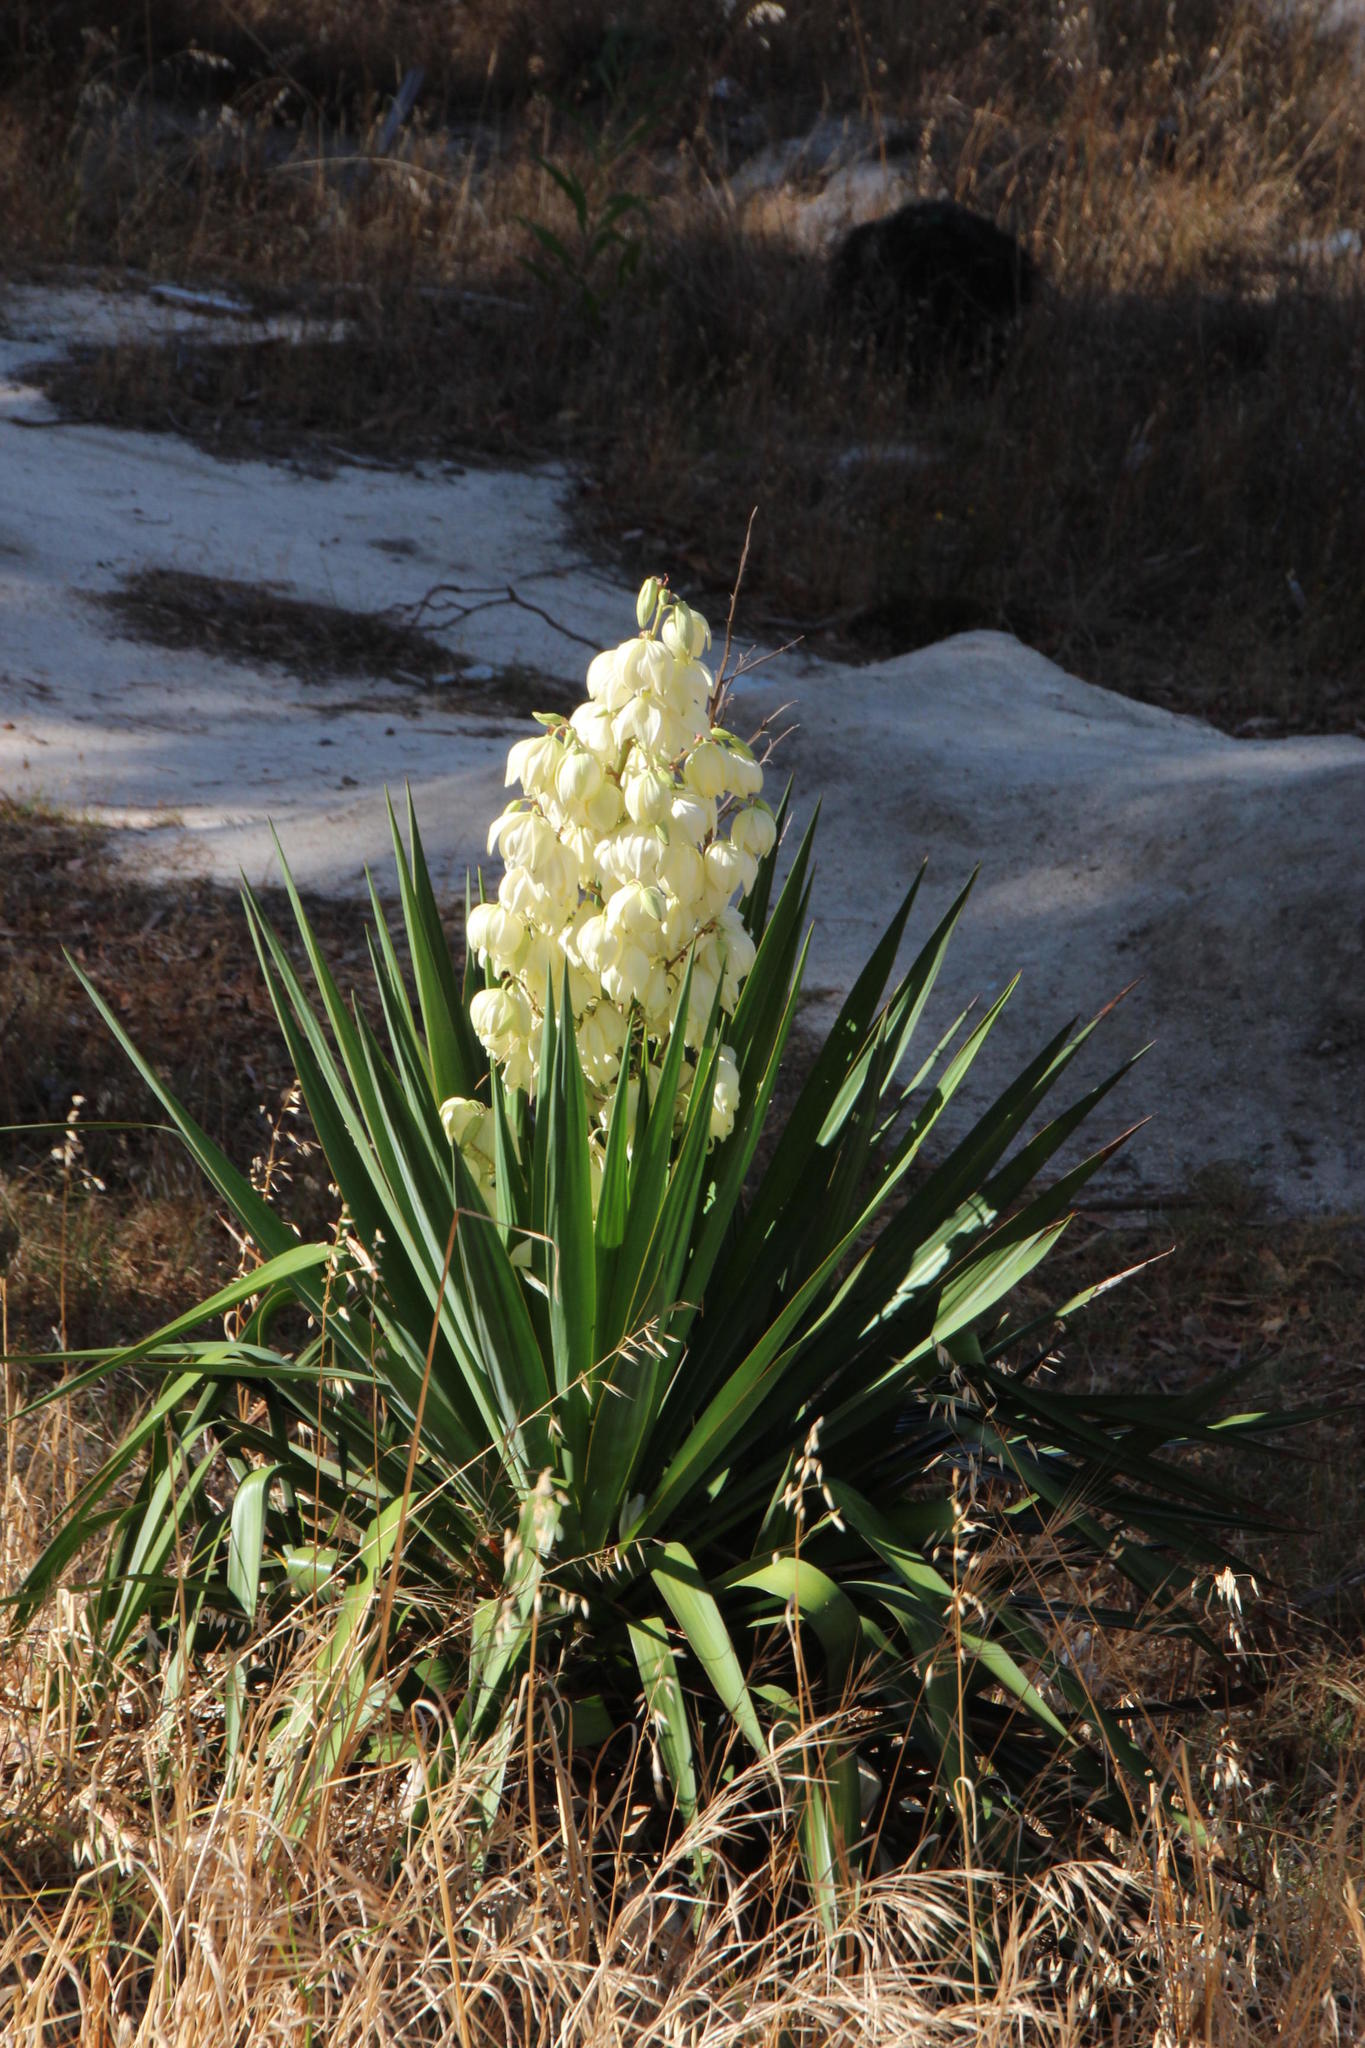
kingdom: Plantae
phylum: Tracheophyta
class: Liliopsida
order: Asparagales
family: Asparagaceae
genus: Yucca
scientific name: Yucca gloriosa
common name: Spanish-dagger
